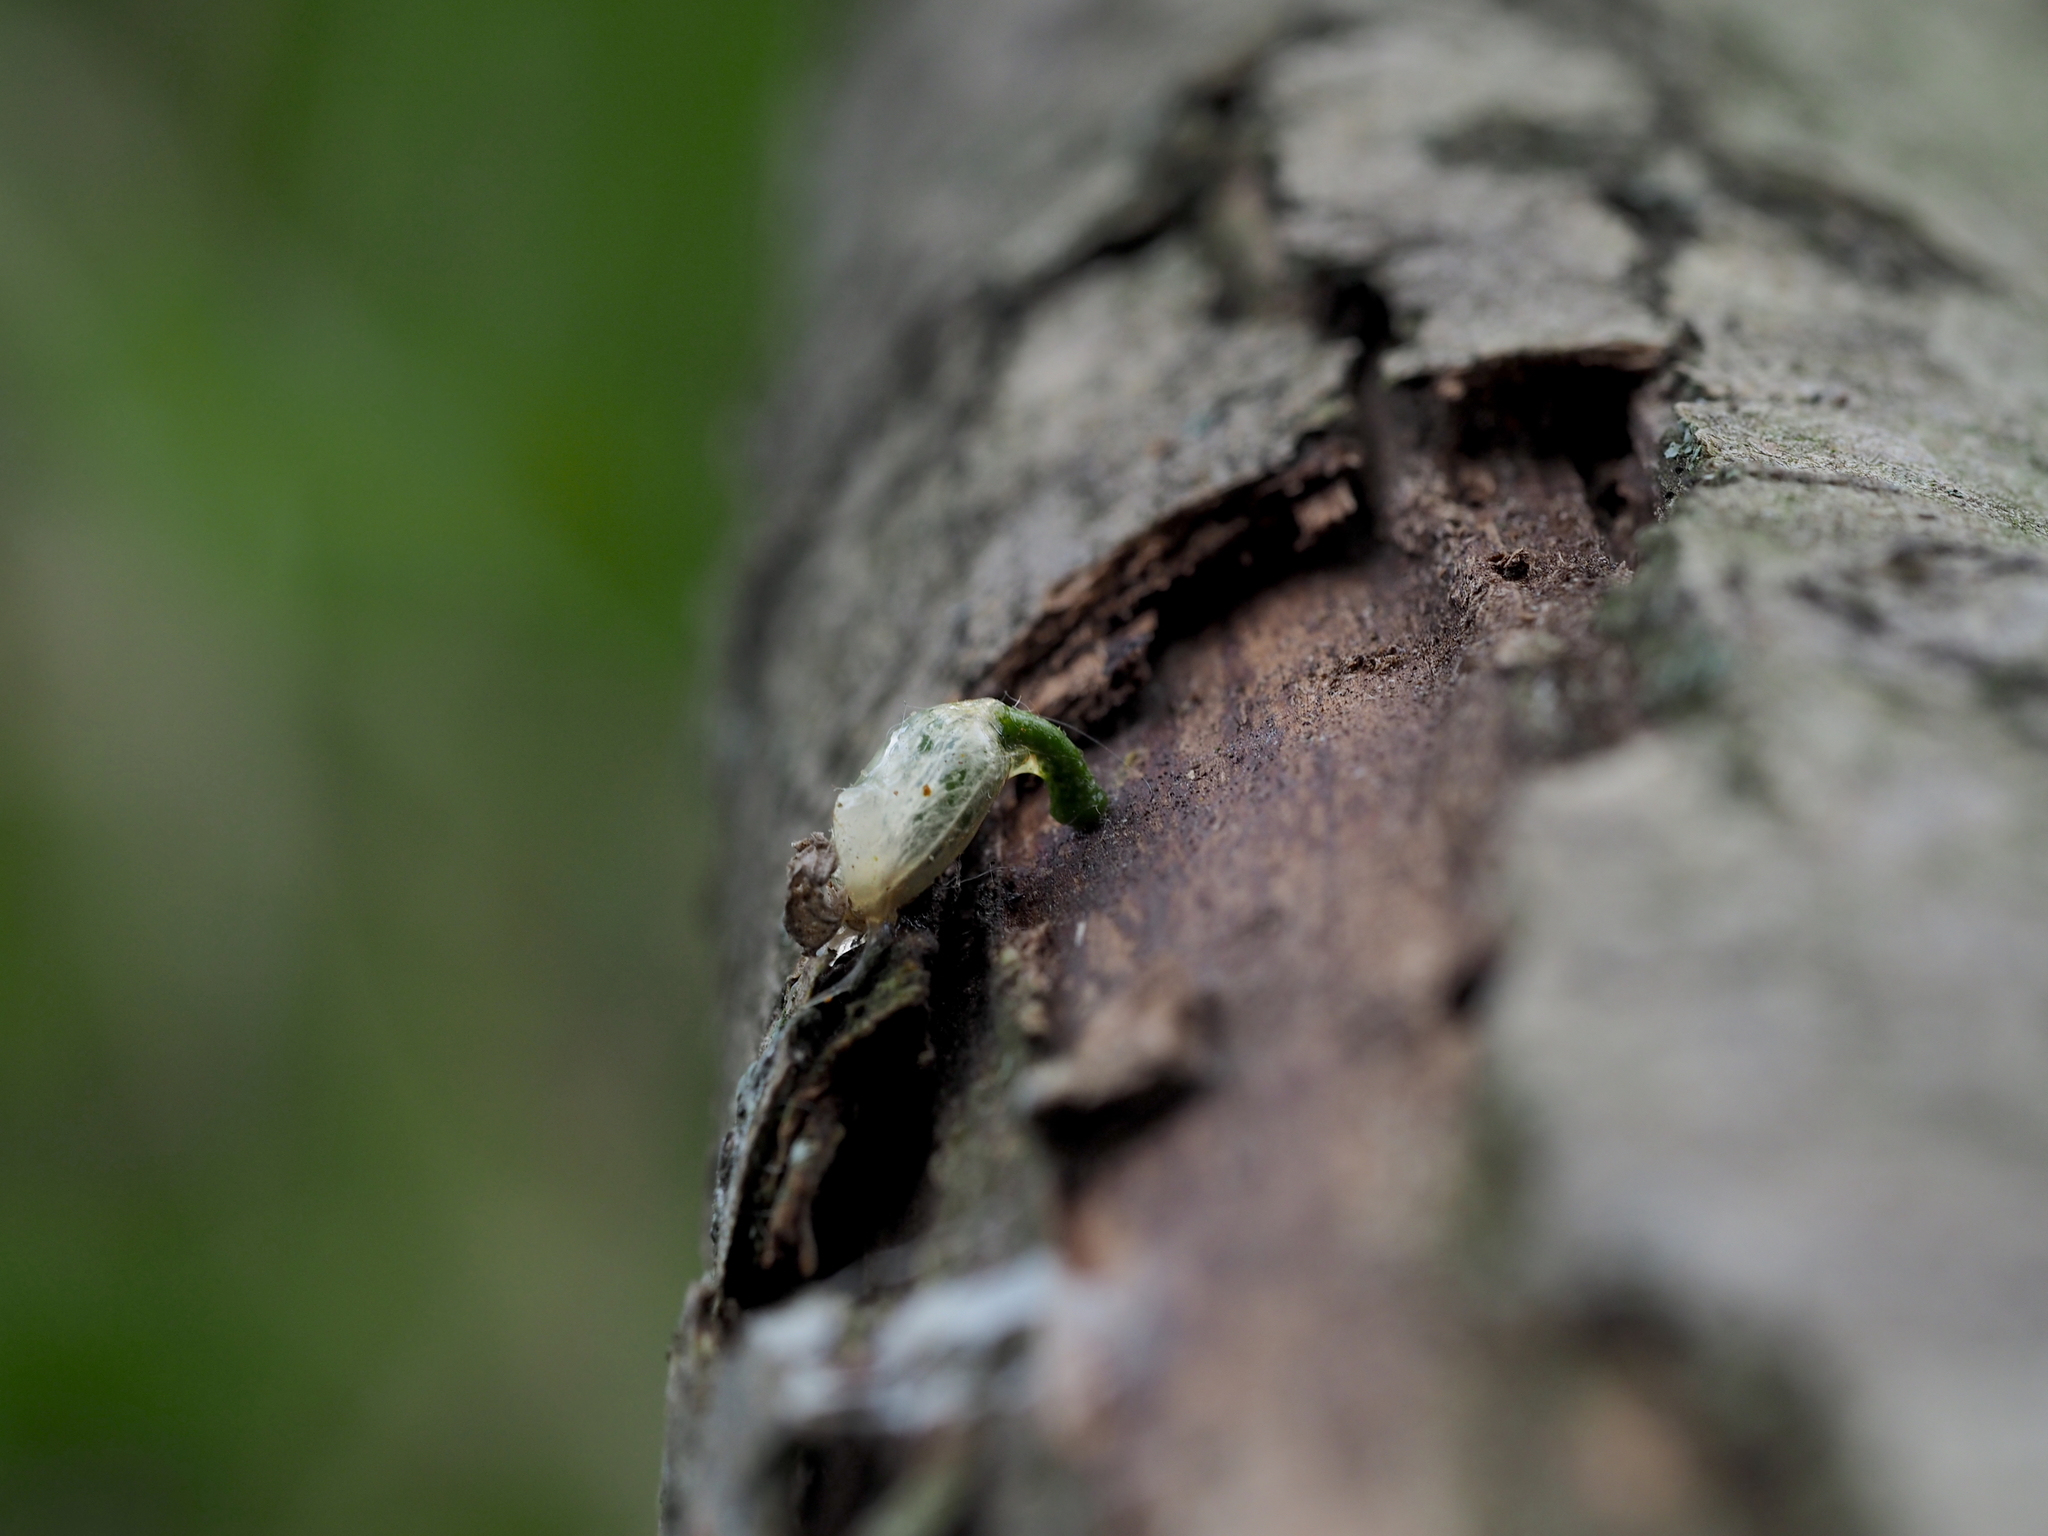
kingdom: Plantae
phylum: Tracheophyta
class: Magnoliopsida
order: Santalales
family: Viscaceae
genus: Viscum
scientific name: Viscum album
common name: Mistletoe
